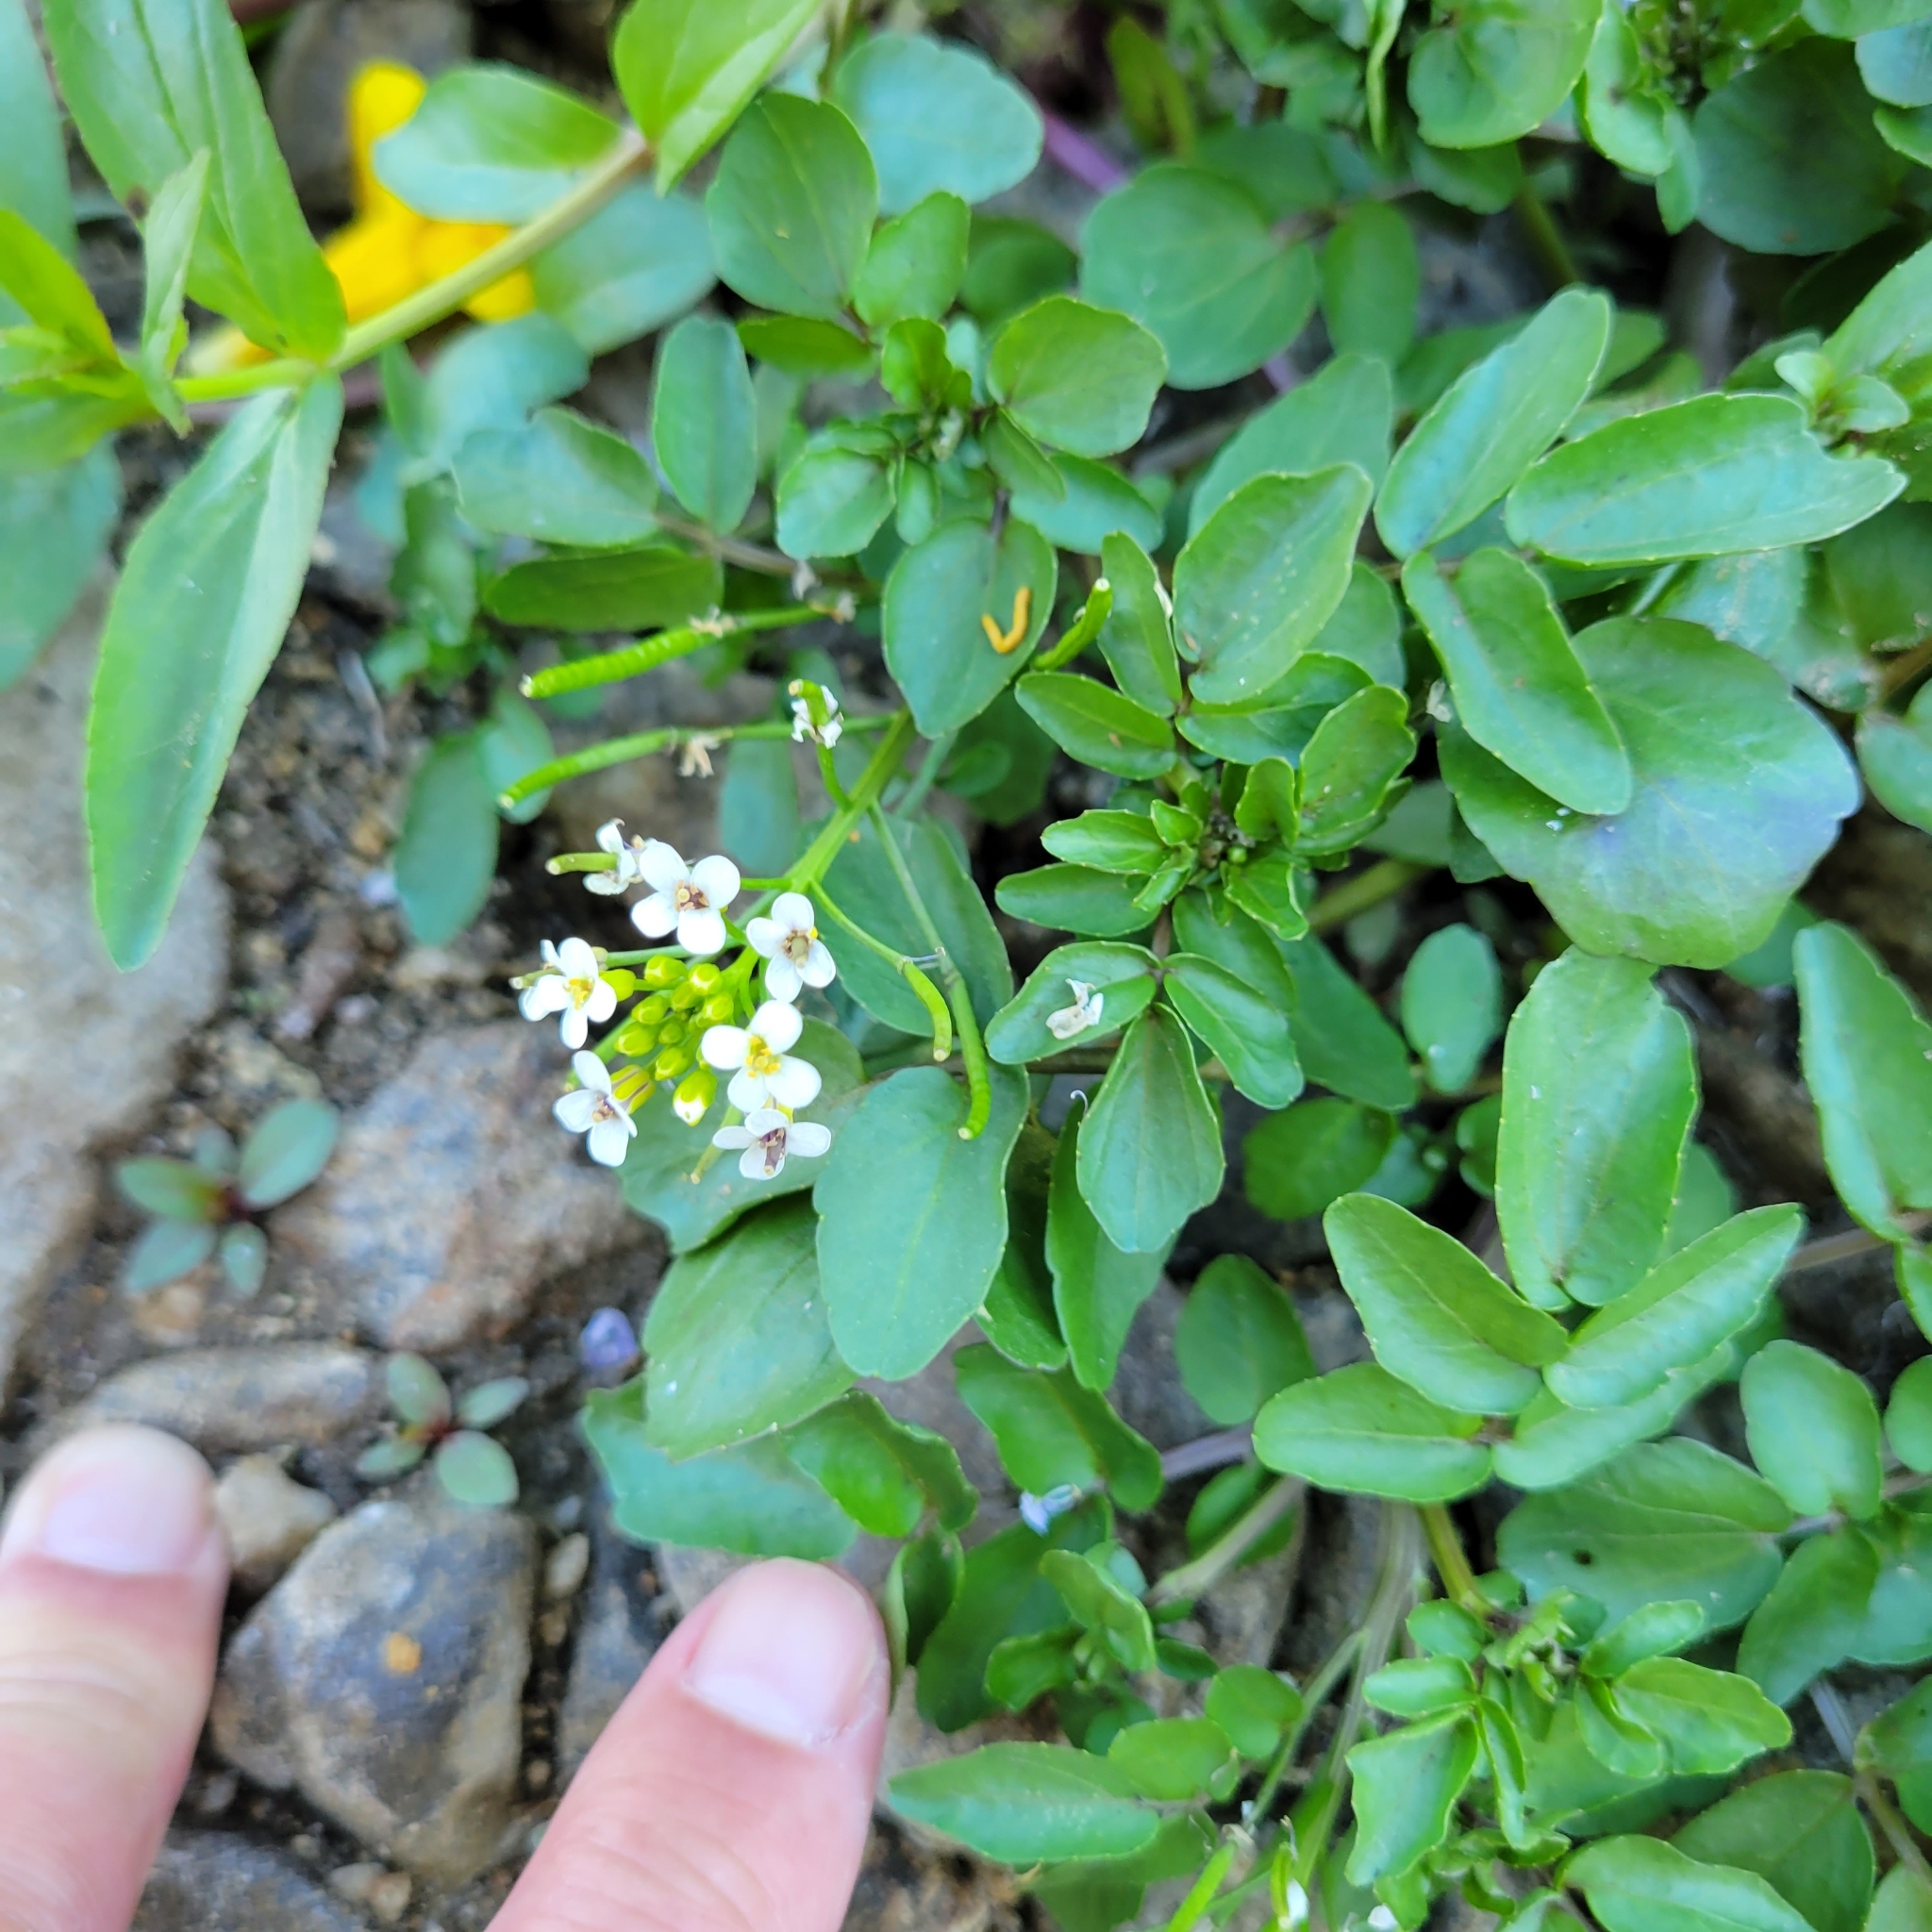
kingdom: Plantae
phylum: Tracheophyta
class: Magnoliopsida
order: Brassicales
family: Brassicaceae
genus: Nasturtium
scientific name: Nasturtium officinale
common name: Watercress
